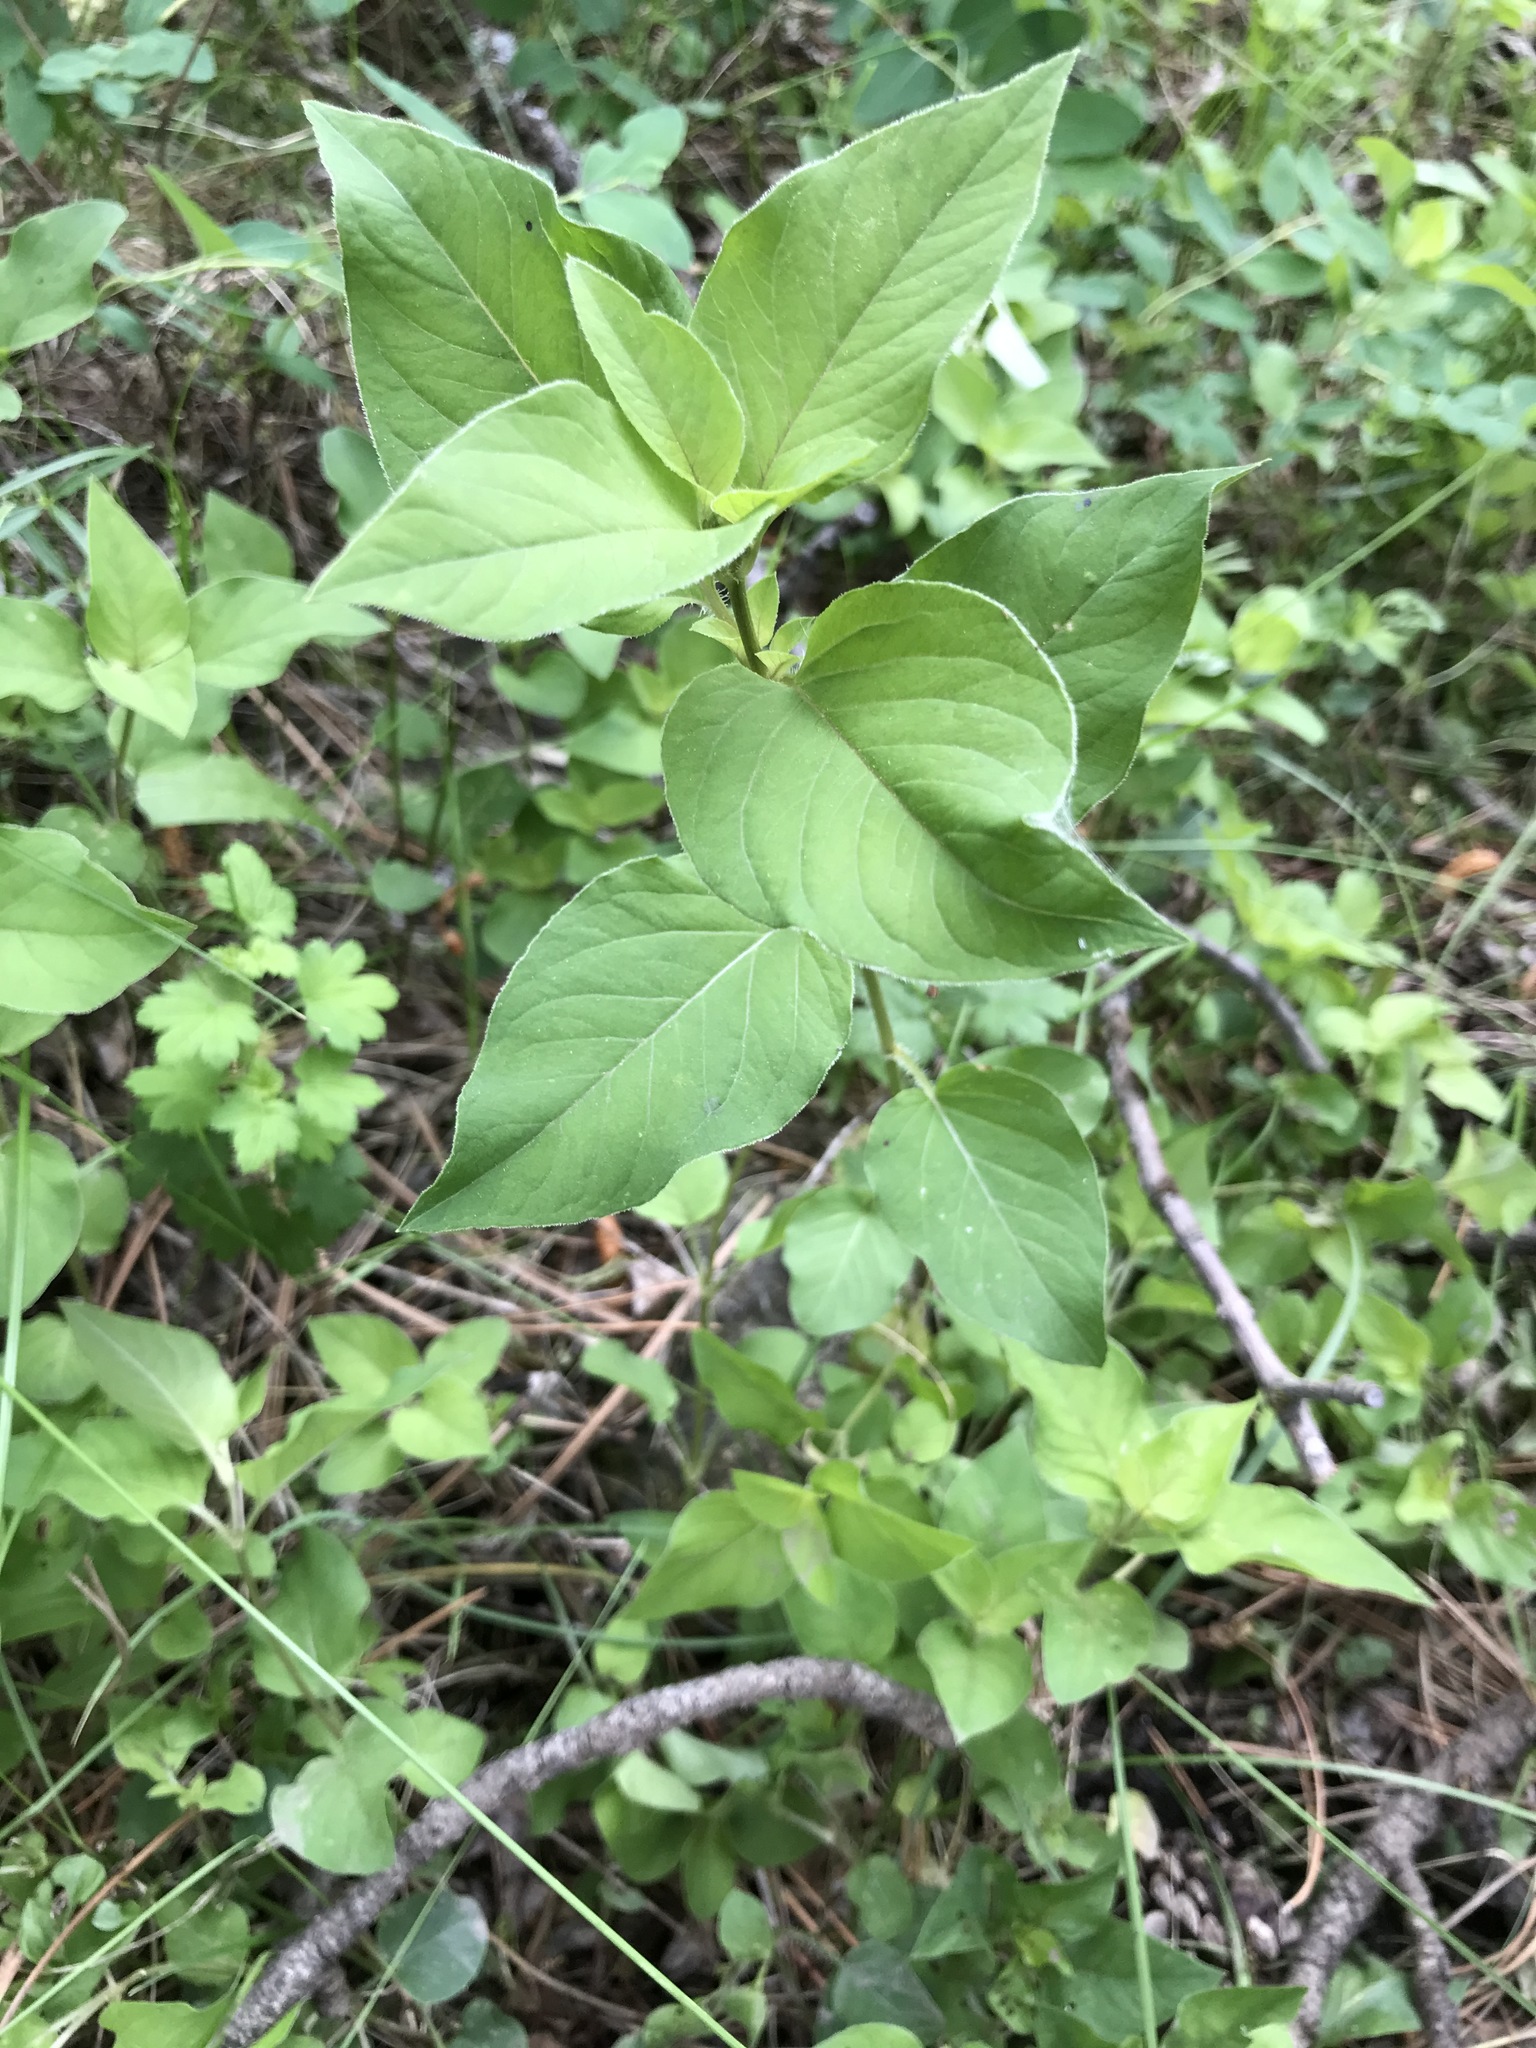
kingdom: Plantae
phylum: Tracheophyta
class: Magnoliopsida
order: Ericales
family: Primulaceae
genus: Lysimachia
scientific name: Lysimachia ciliata
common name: Fringed loosestrife
